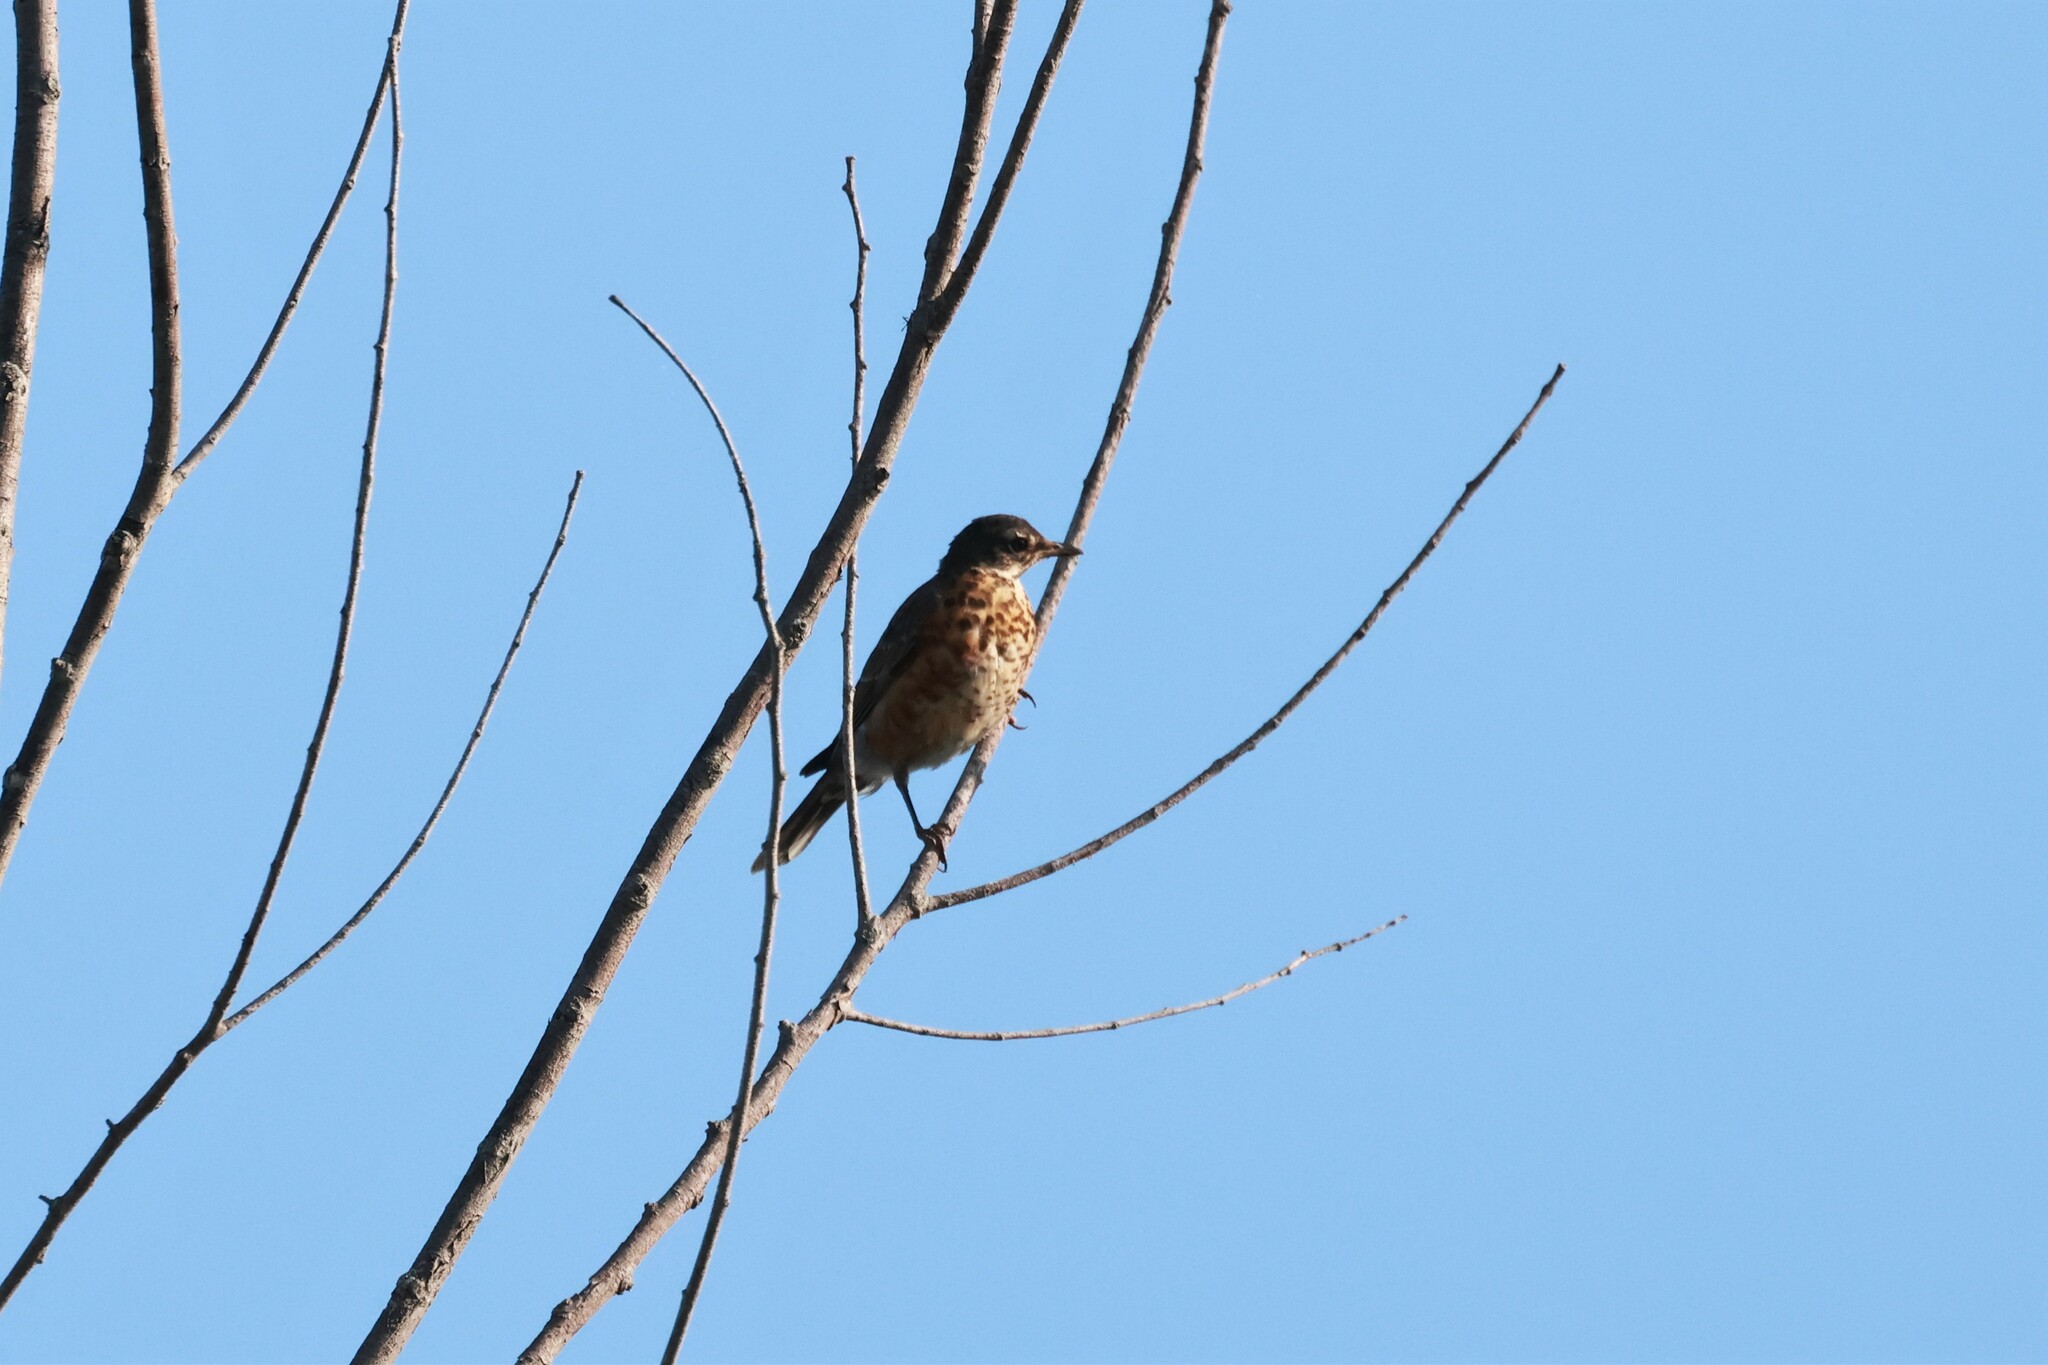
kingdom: Animalia
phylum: Chordata
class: Aves
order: Passeriformes
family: Turdidae
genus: Turdus
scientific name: Turdus migratorius
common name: American robin
